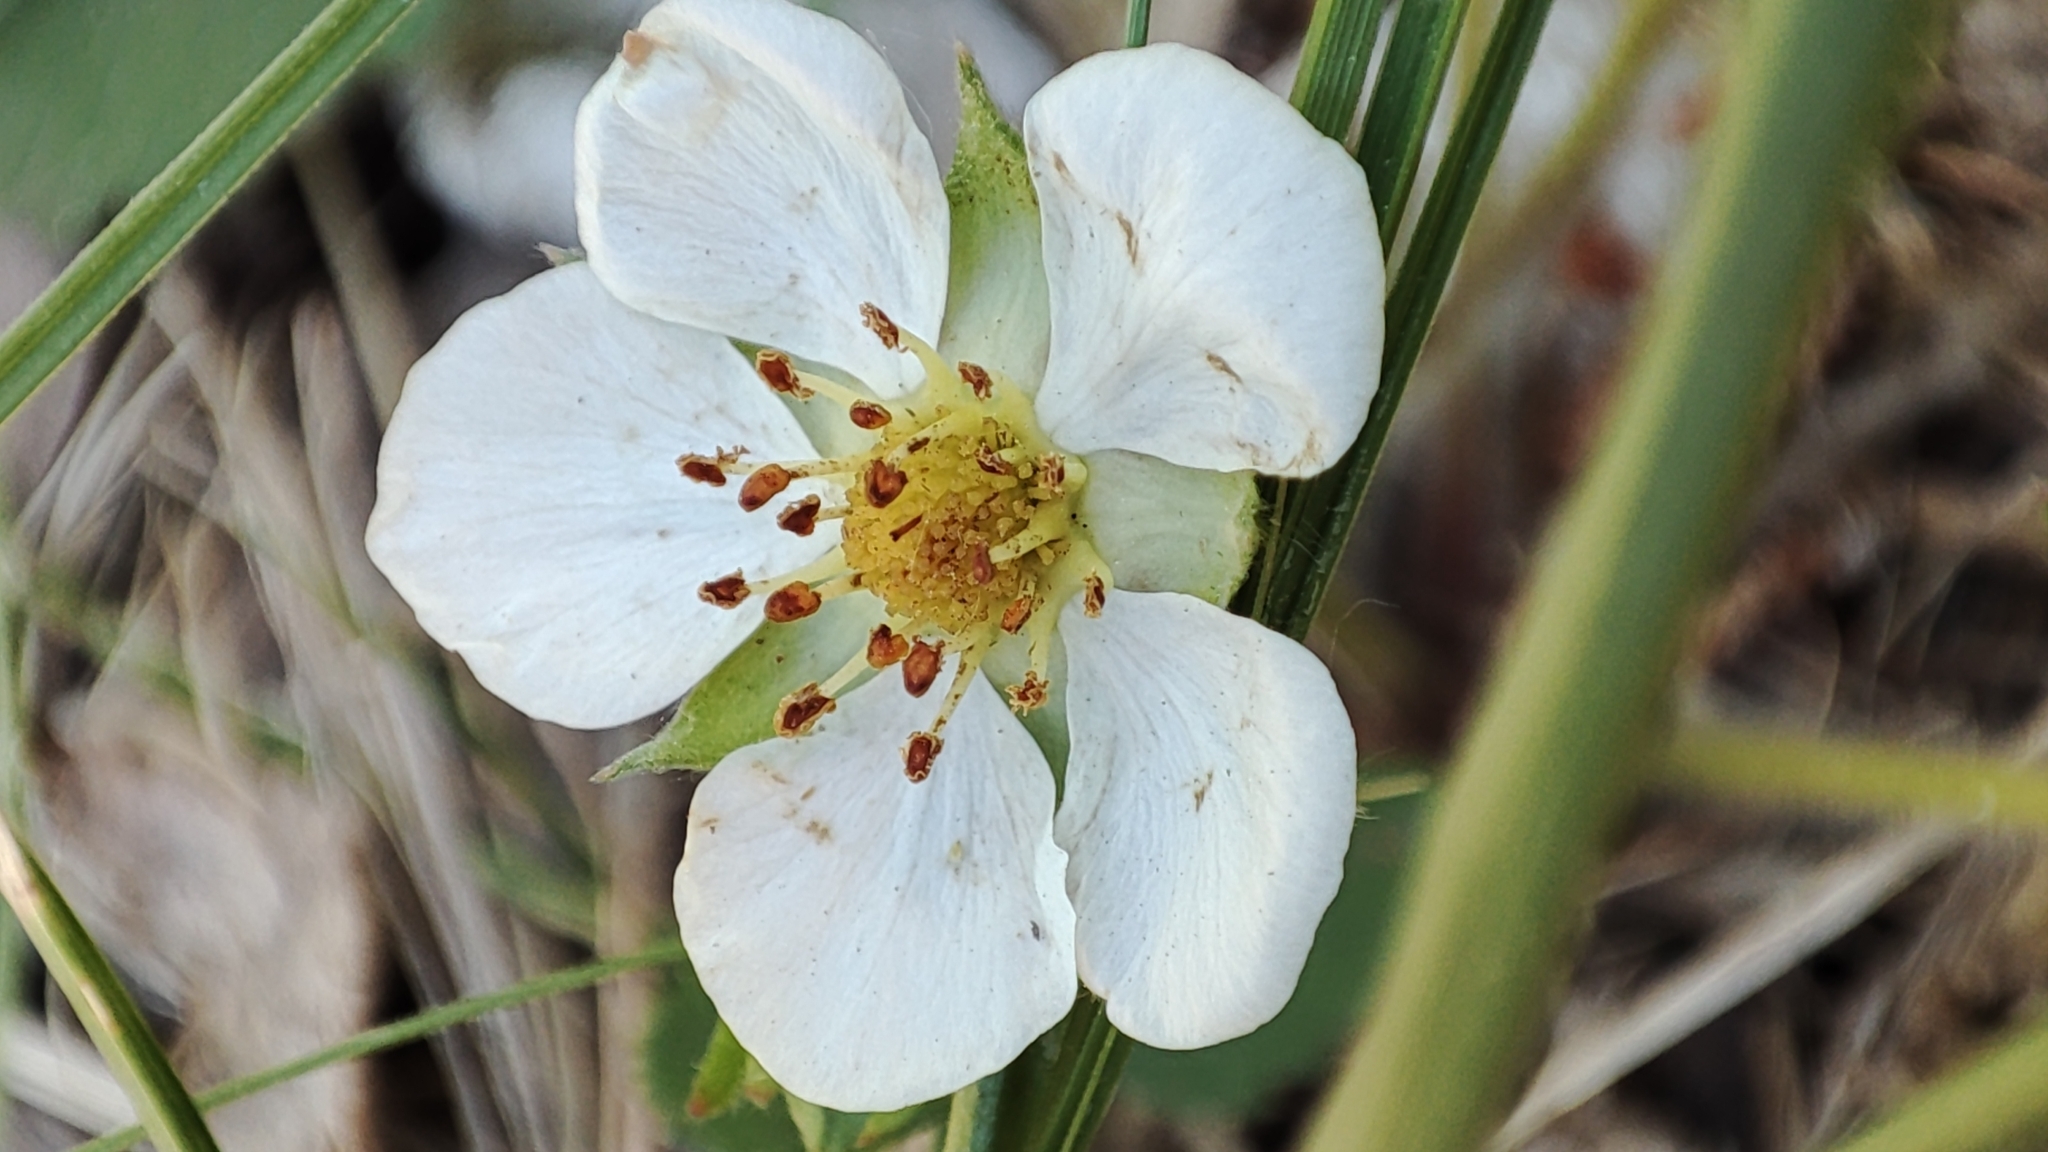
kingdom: Plantae
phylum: Tracheophyta
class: Magnoliopsida
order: Rosales
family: Rosaceae
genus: Fragaria
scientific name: Fragaria viridis
